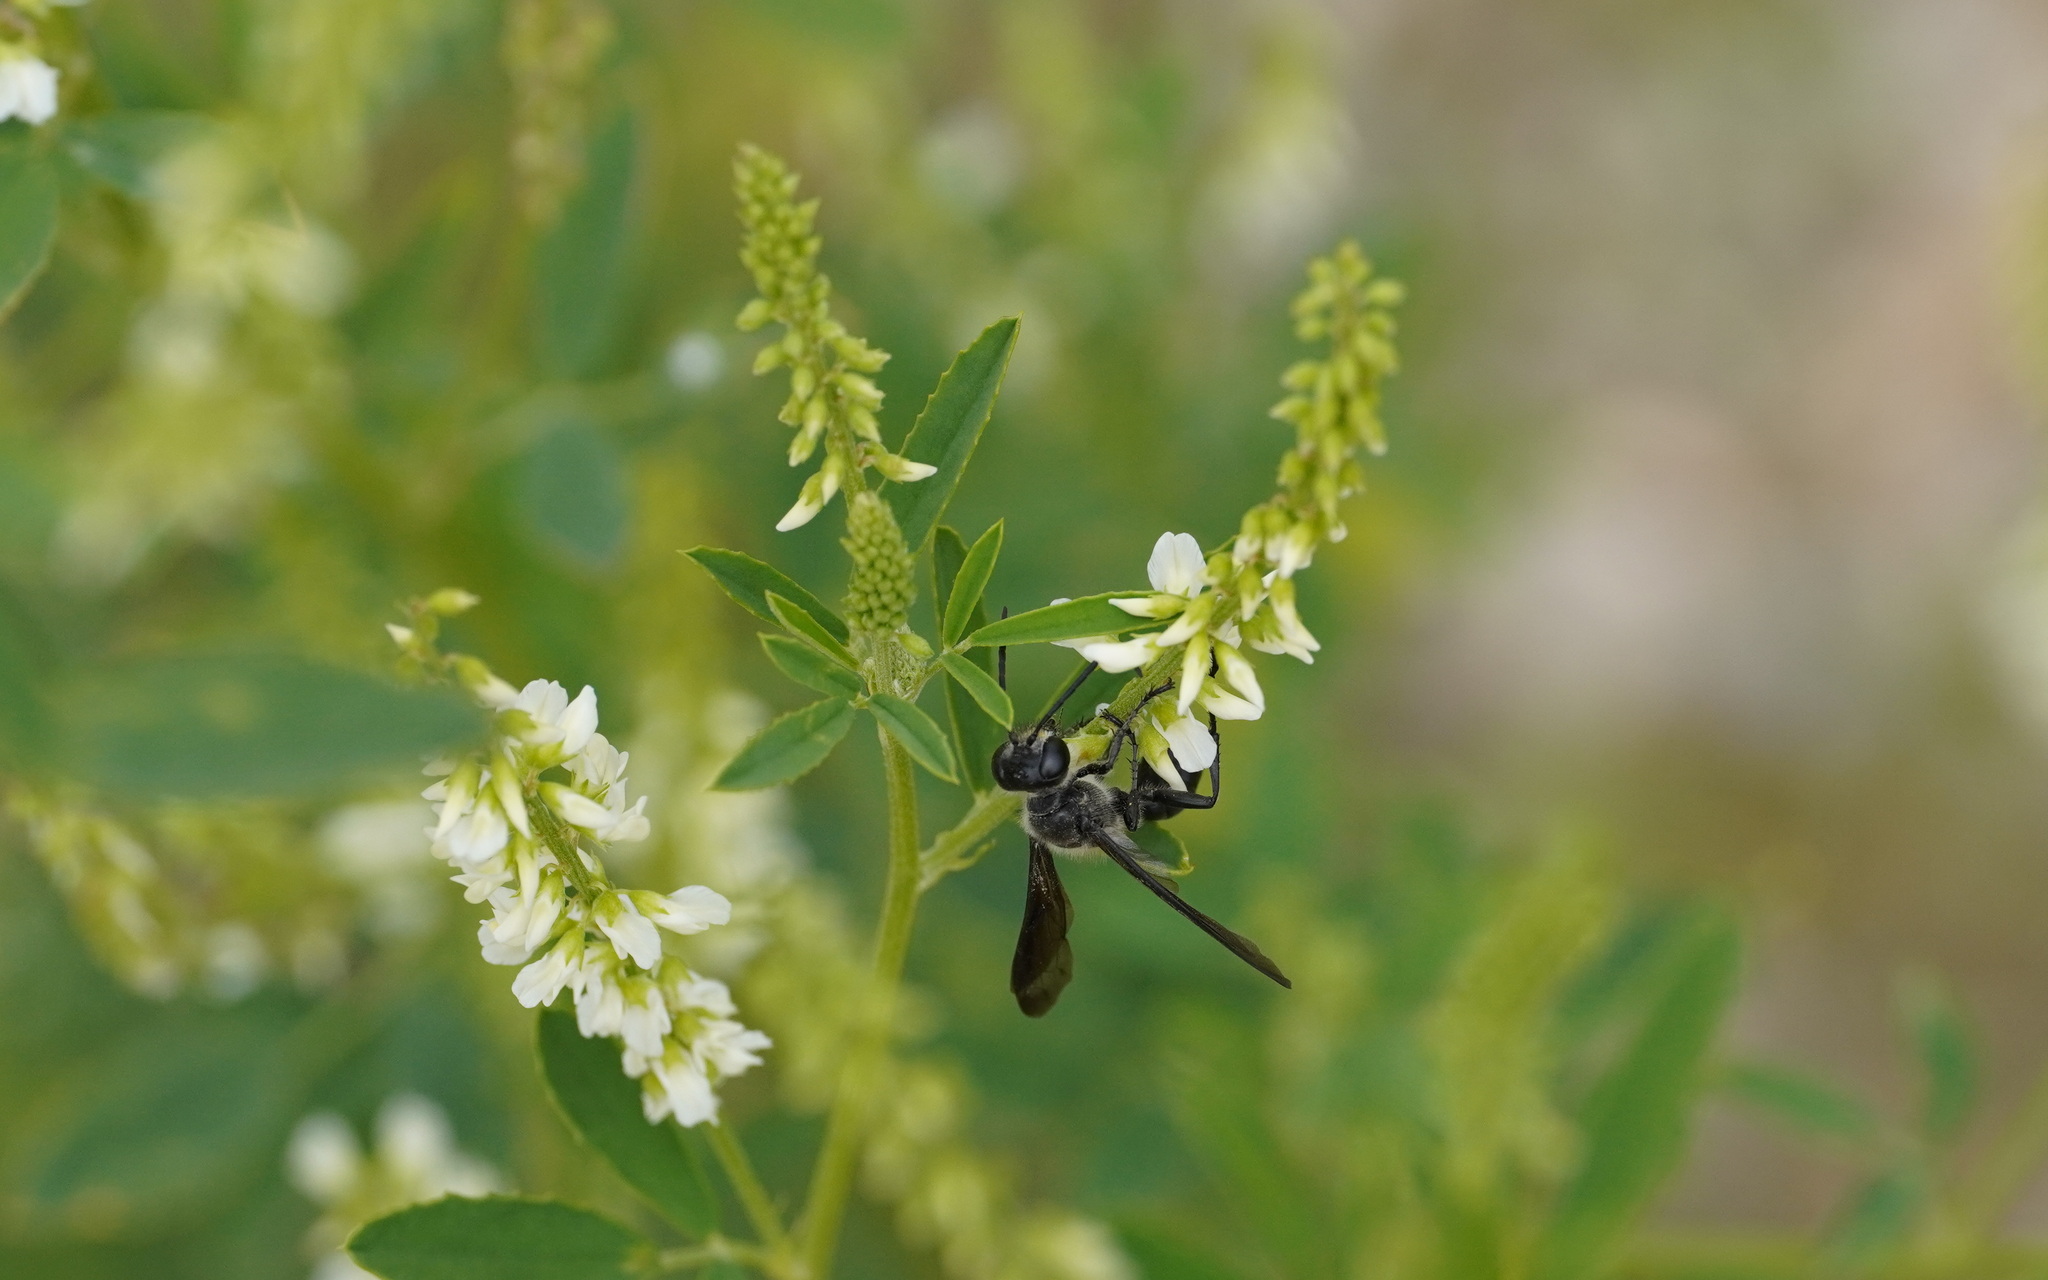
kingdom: Animalia
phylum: Arthropoda
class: Insecta
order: Hymenoptera
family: Sphecidae
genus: Isodontia
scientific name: Isodontia mexicana
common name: Mud dauber
